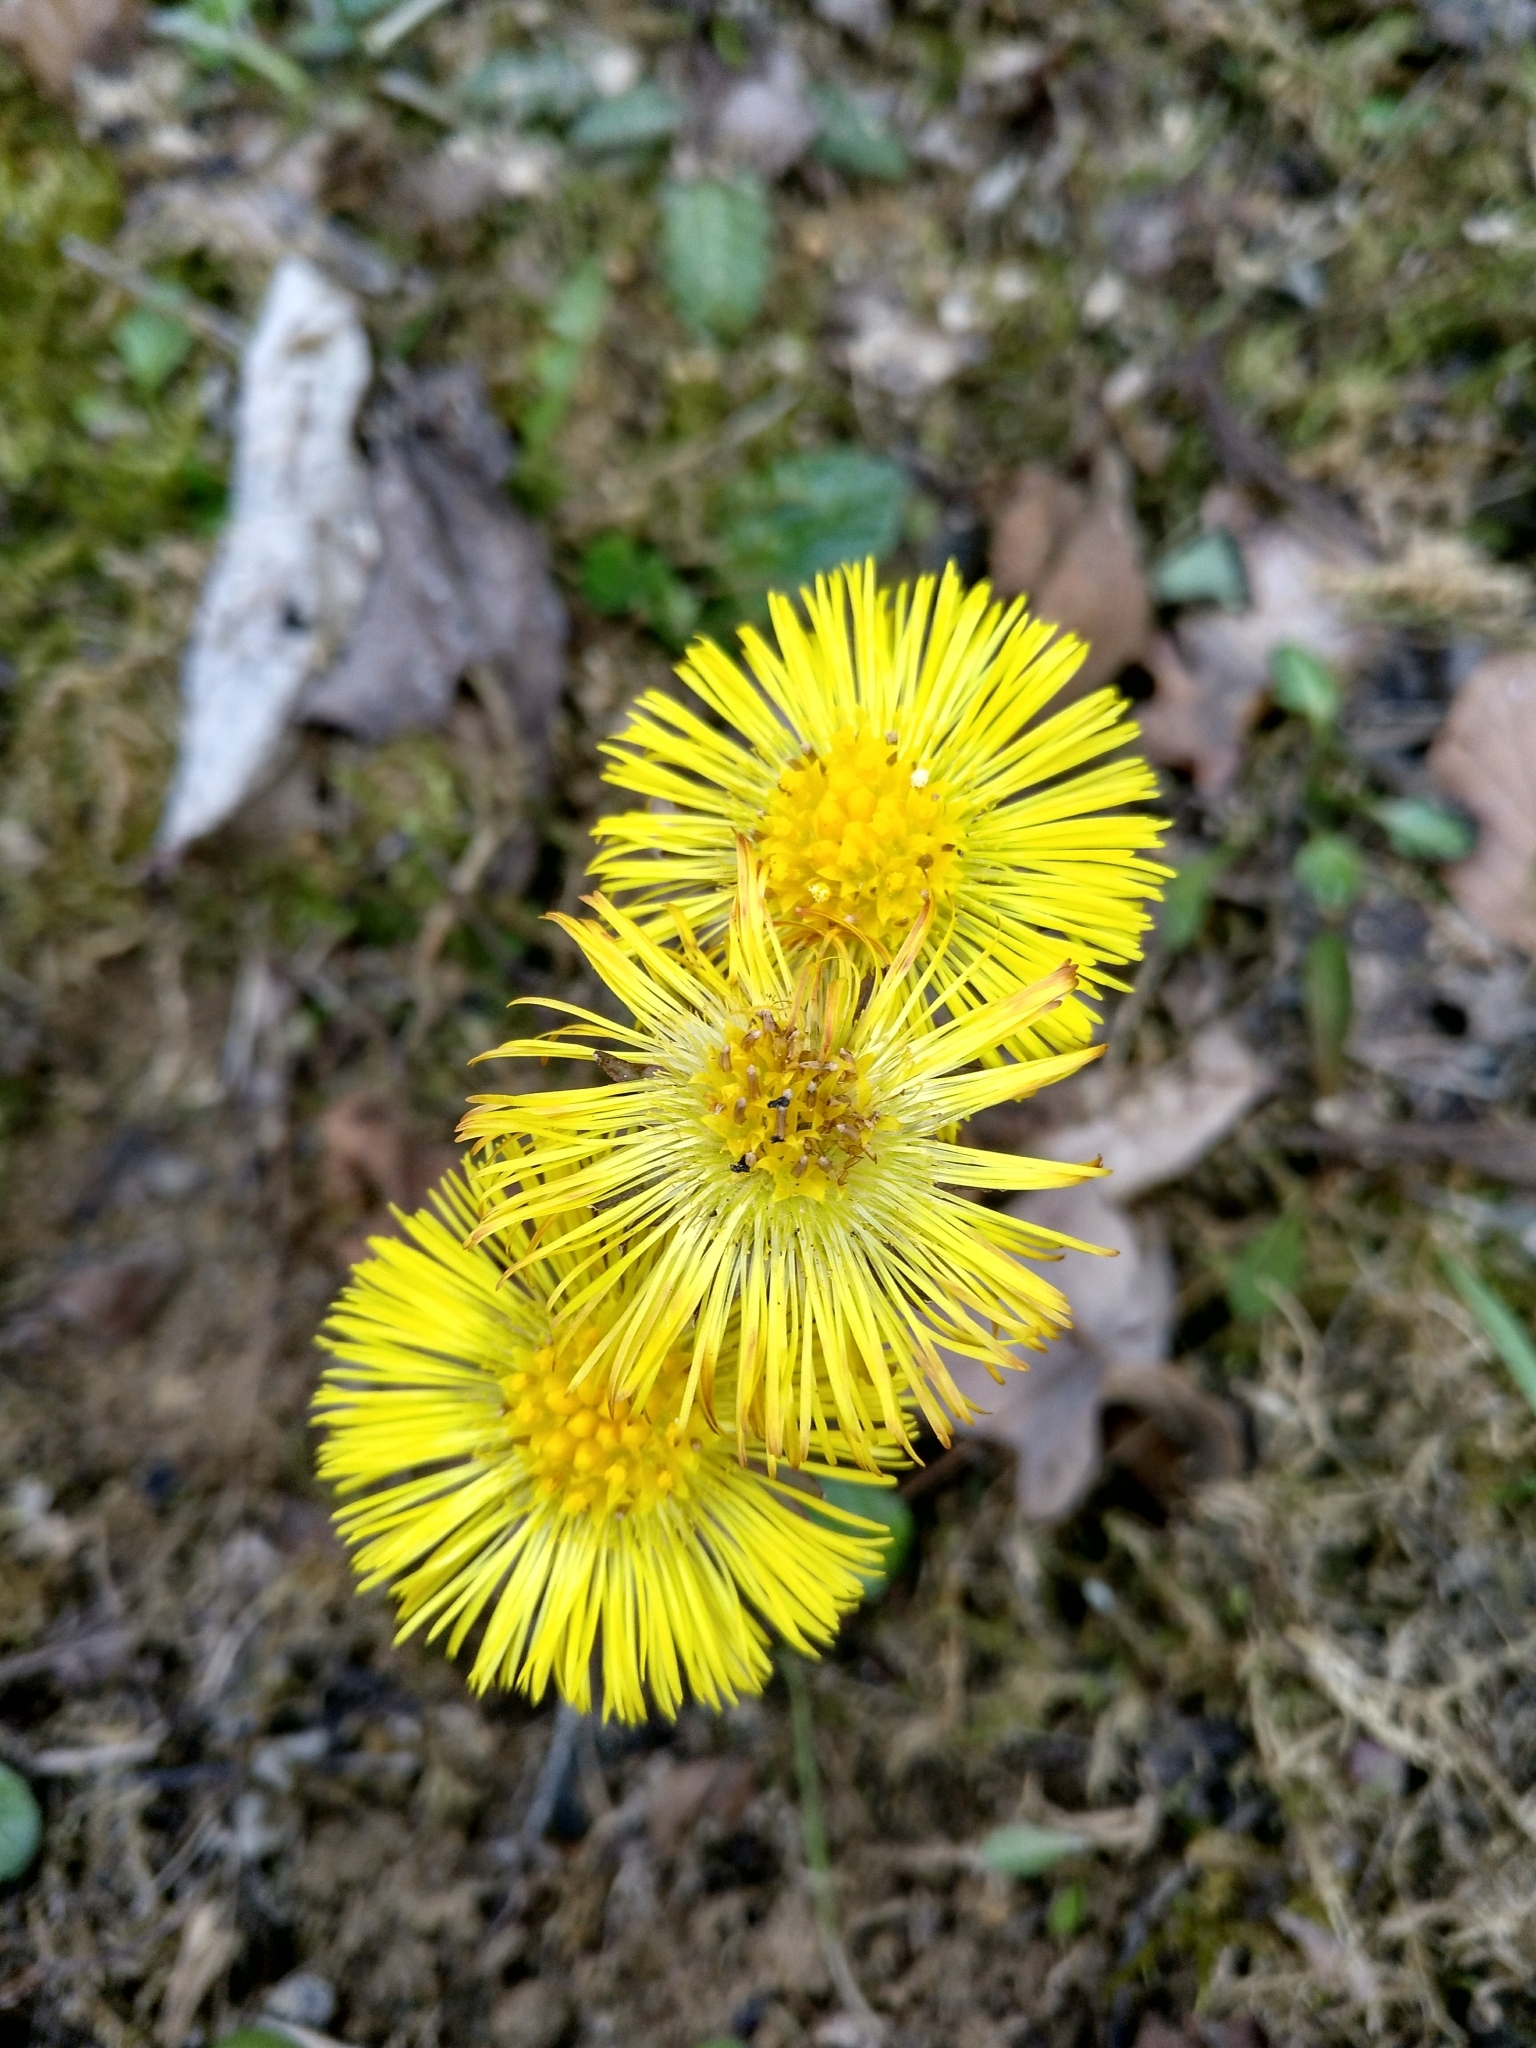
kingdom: Plantae
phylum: Tracheophyta
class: Magnoliopsida
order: Asterales
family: Asteraceae
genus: Tussilago
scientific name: Tussilago farfara
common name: Coltsfoot
